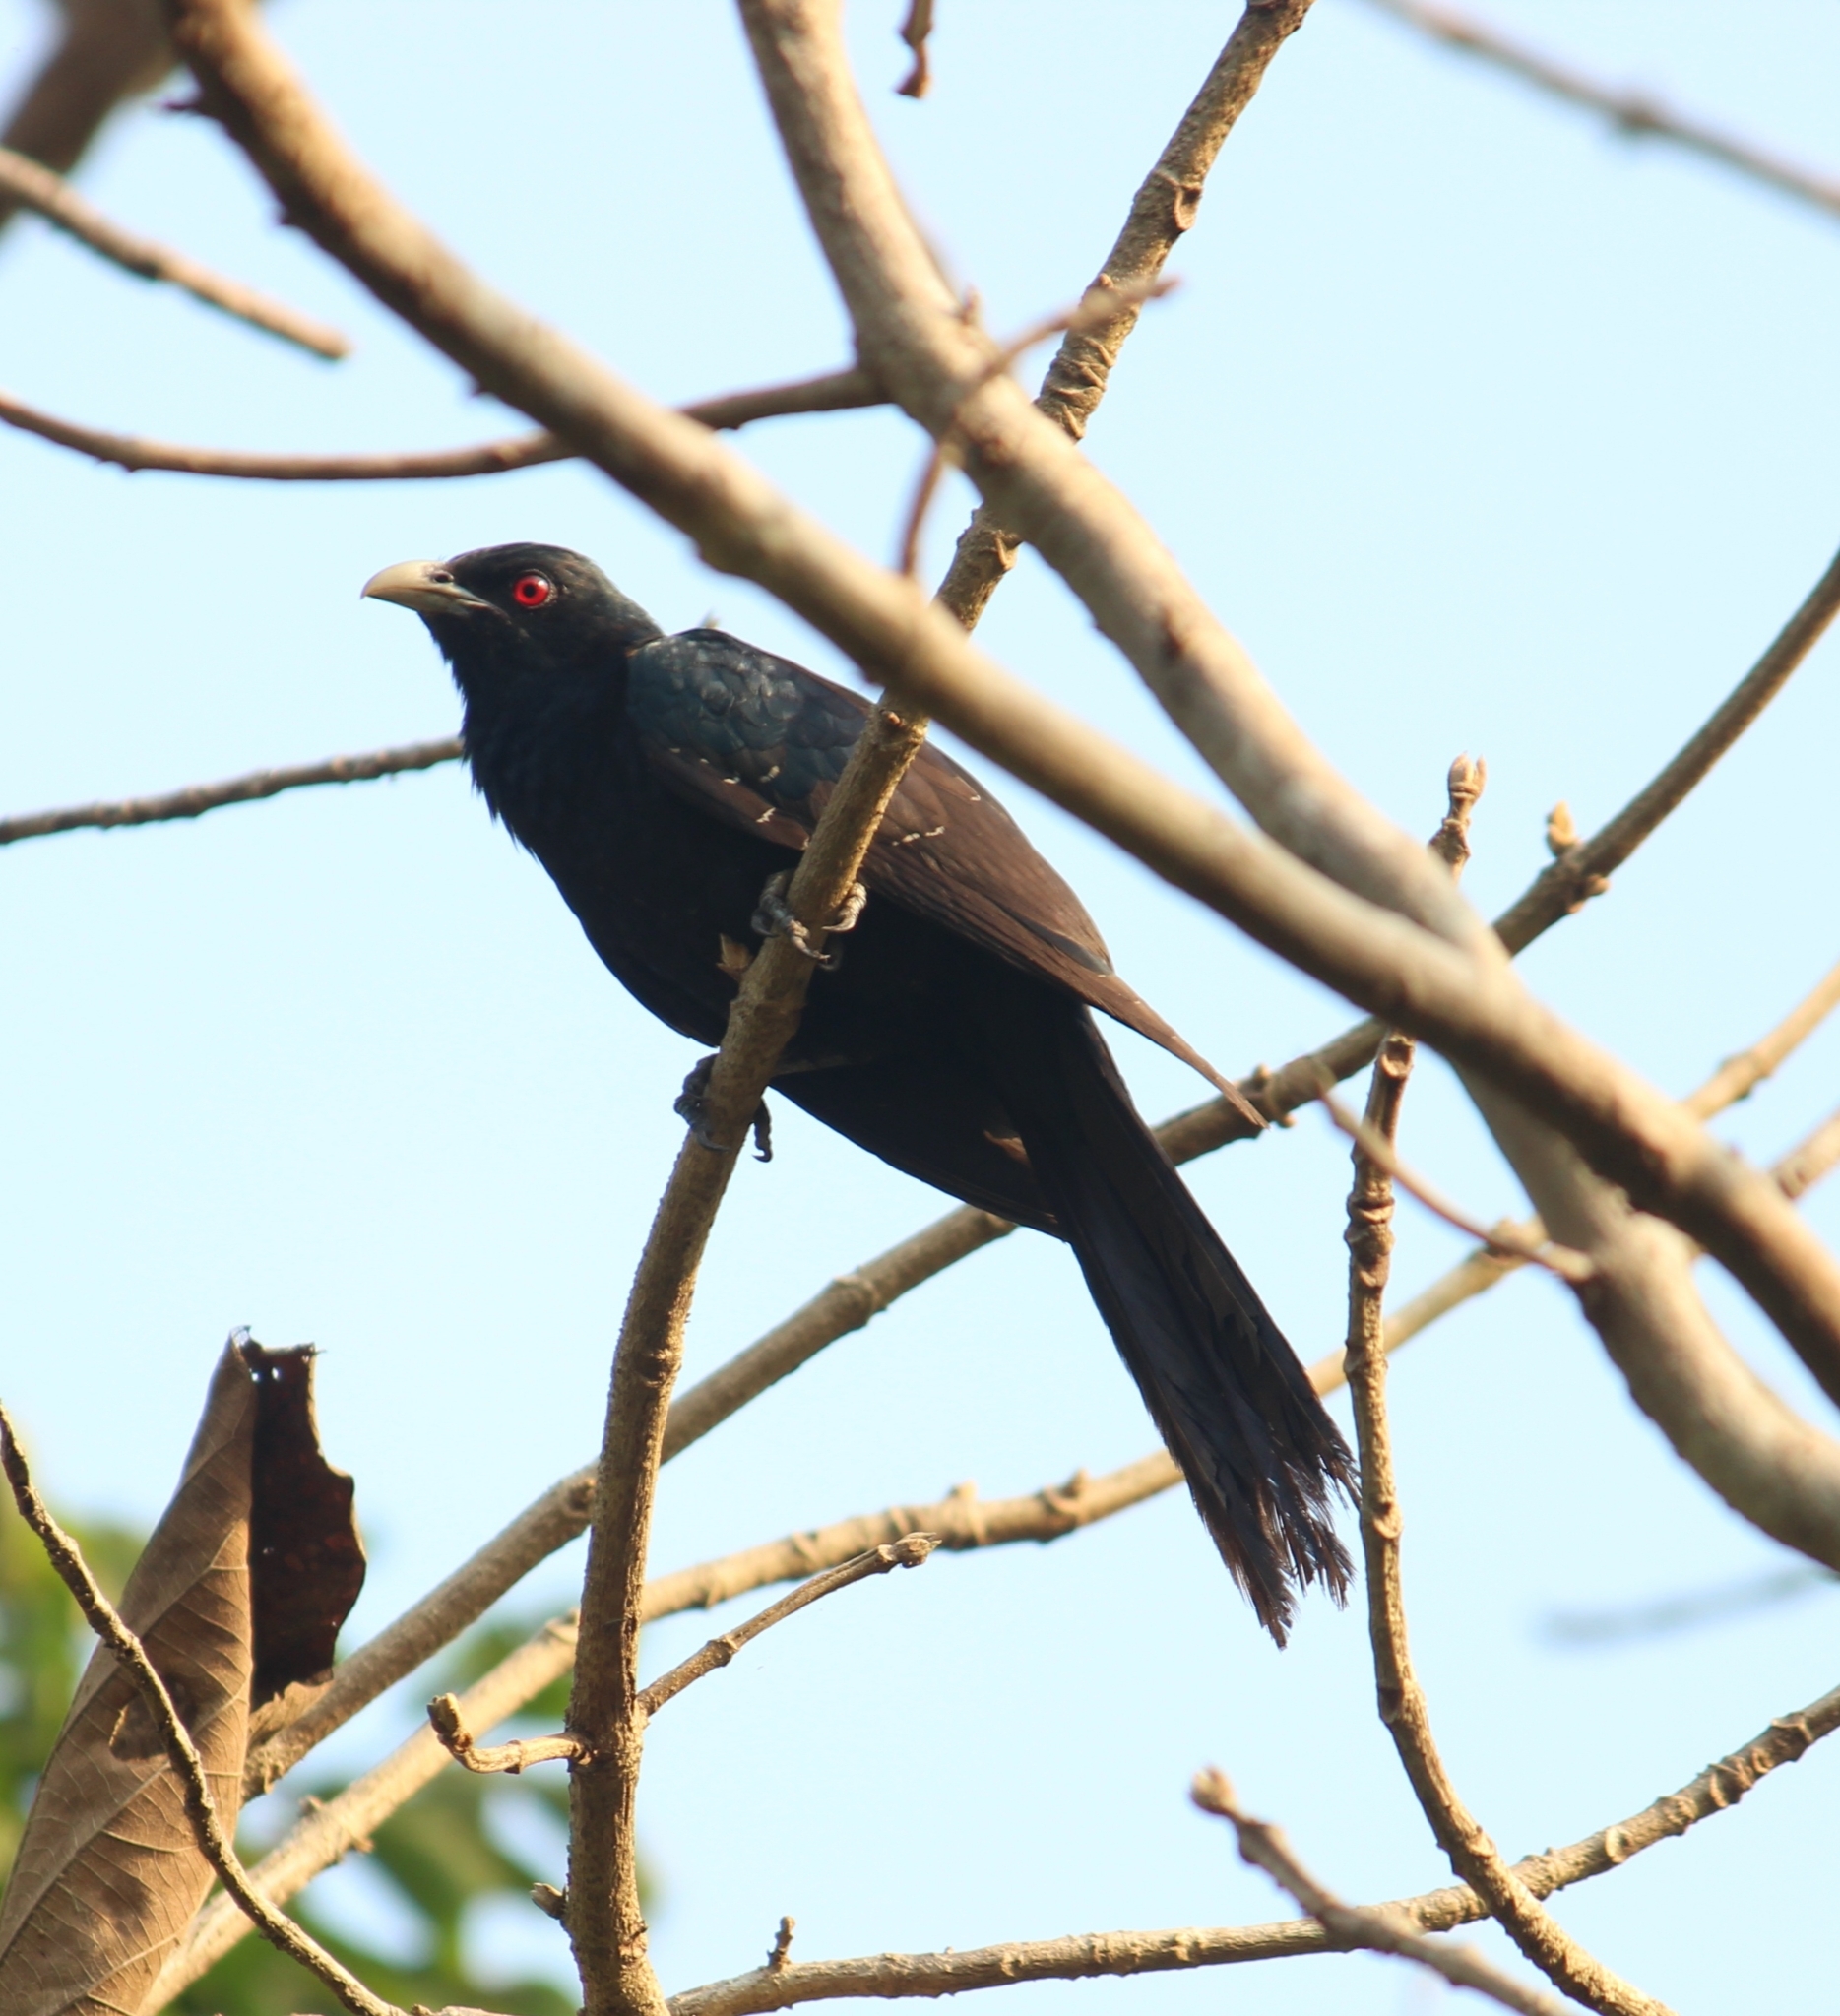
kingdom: Animalia
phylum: Chordata
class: Aves
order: Cuculiformes
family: Cuculidae
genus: Eudynamys
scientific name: Eudynamys scolopaceus
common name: Asian koel
